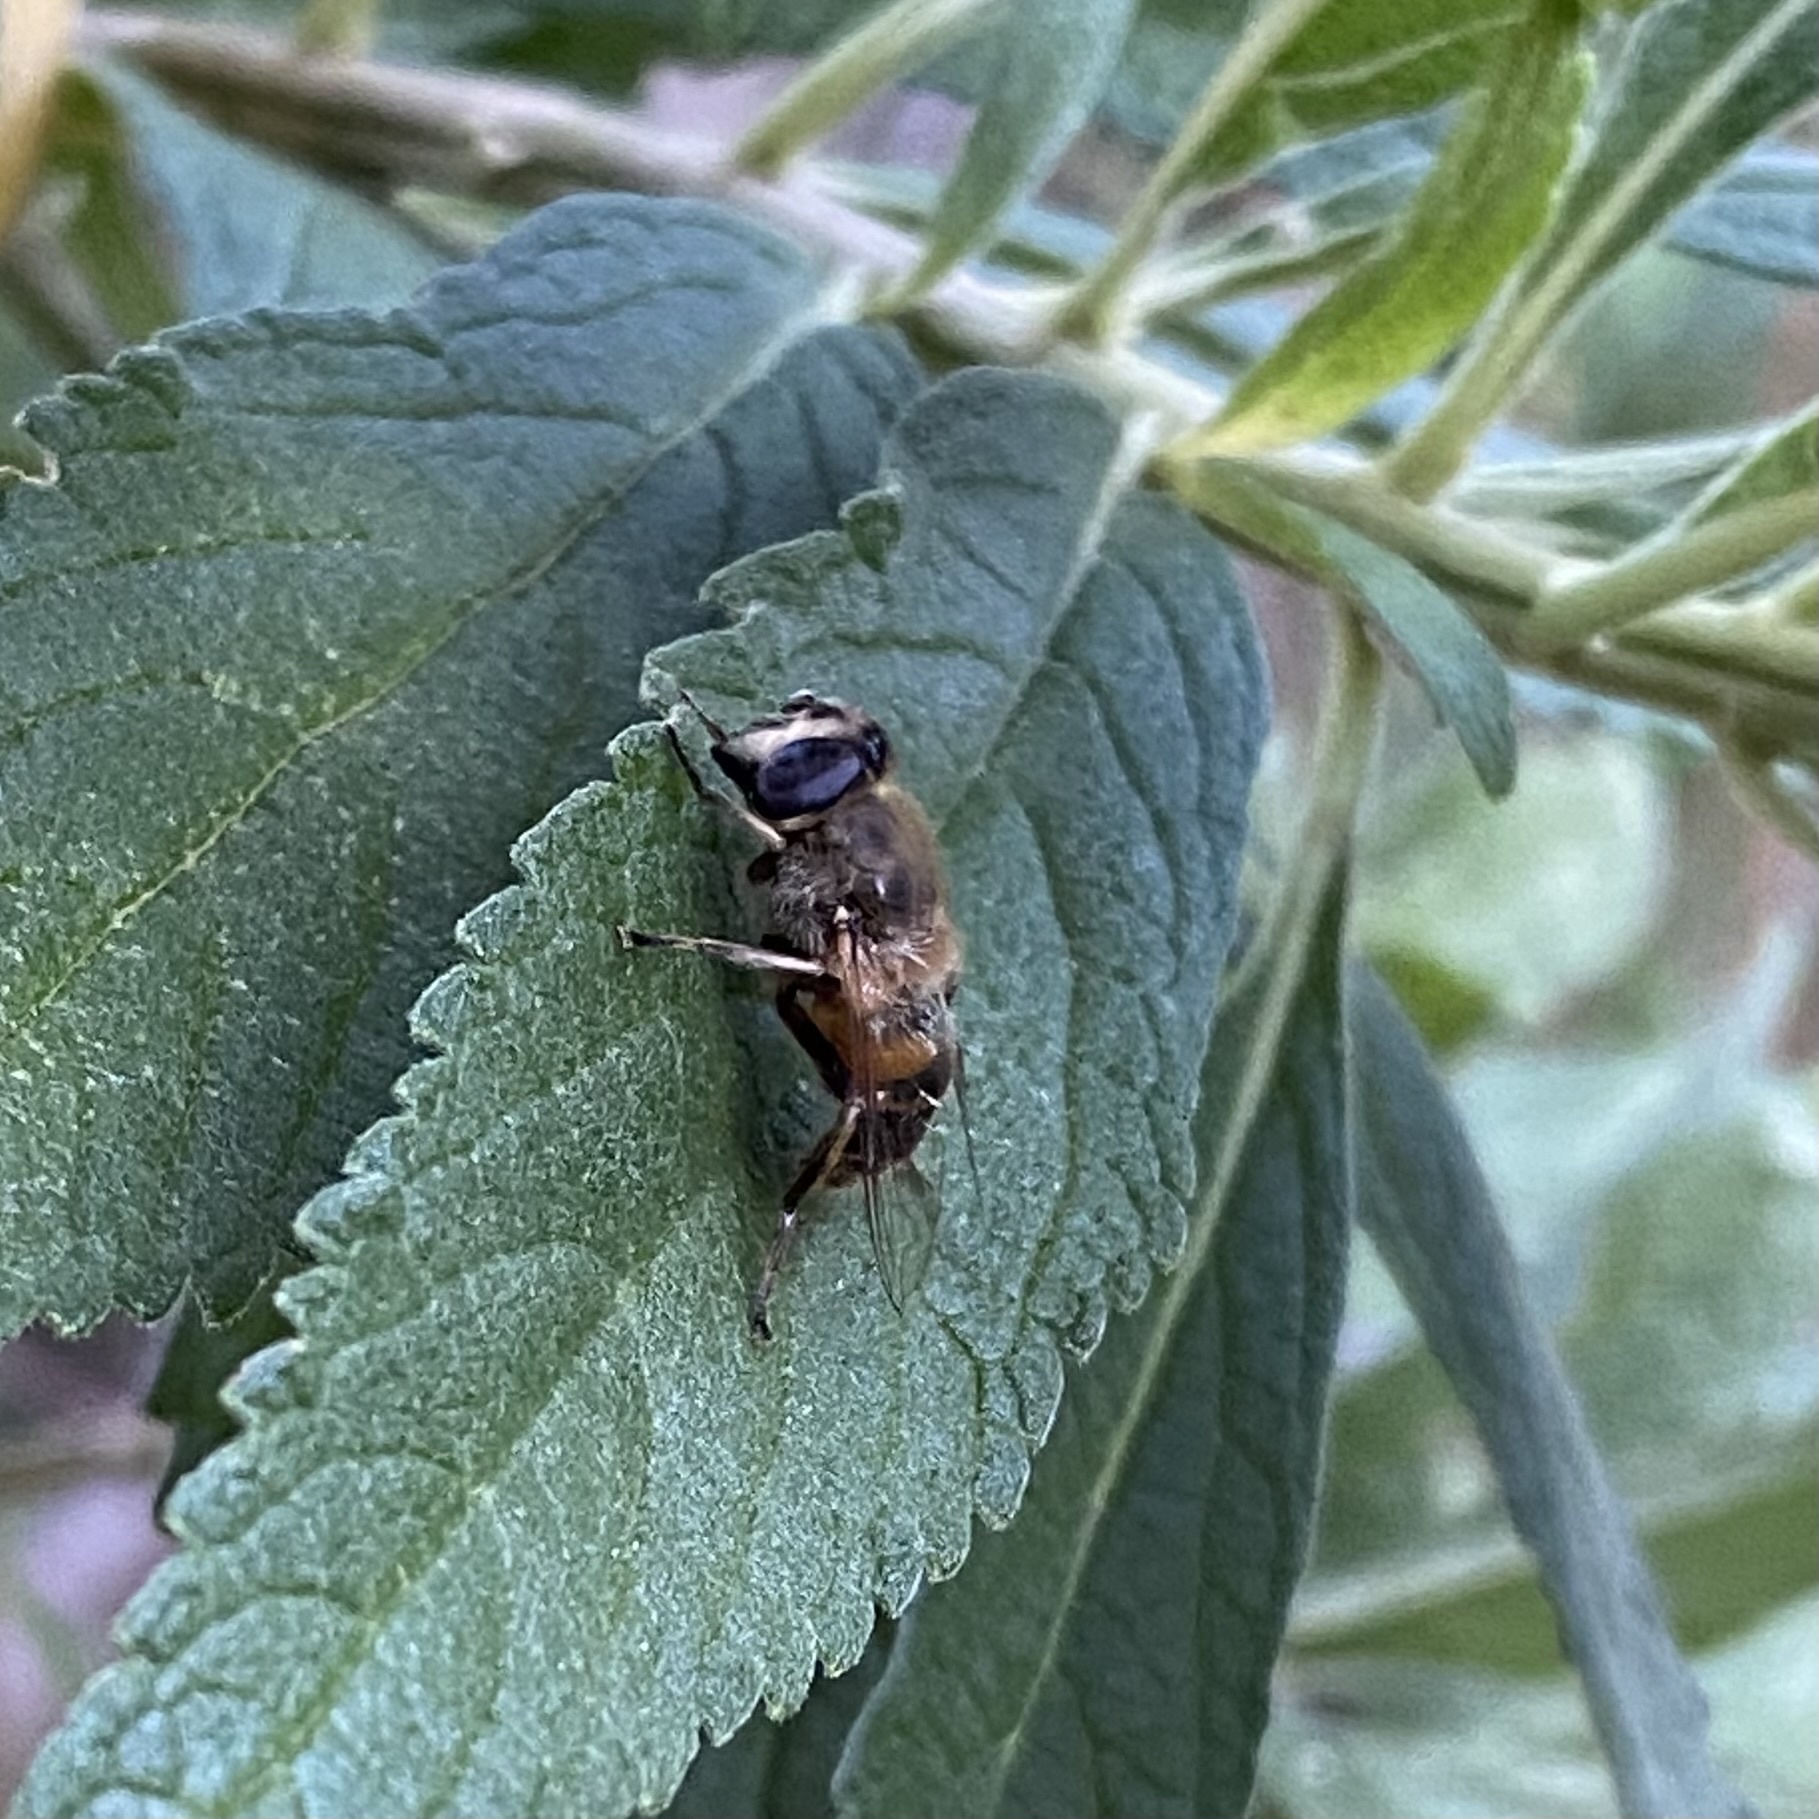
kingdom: Animalia
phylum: Arthropoda
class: Insecta
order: Diptera
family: Syrphidae
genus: Eristalis
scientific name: Eristalis tenax
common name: Drone fly
